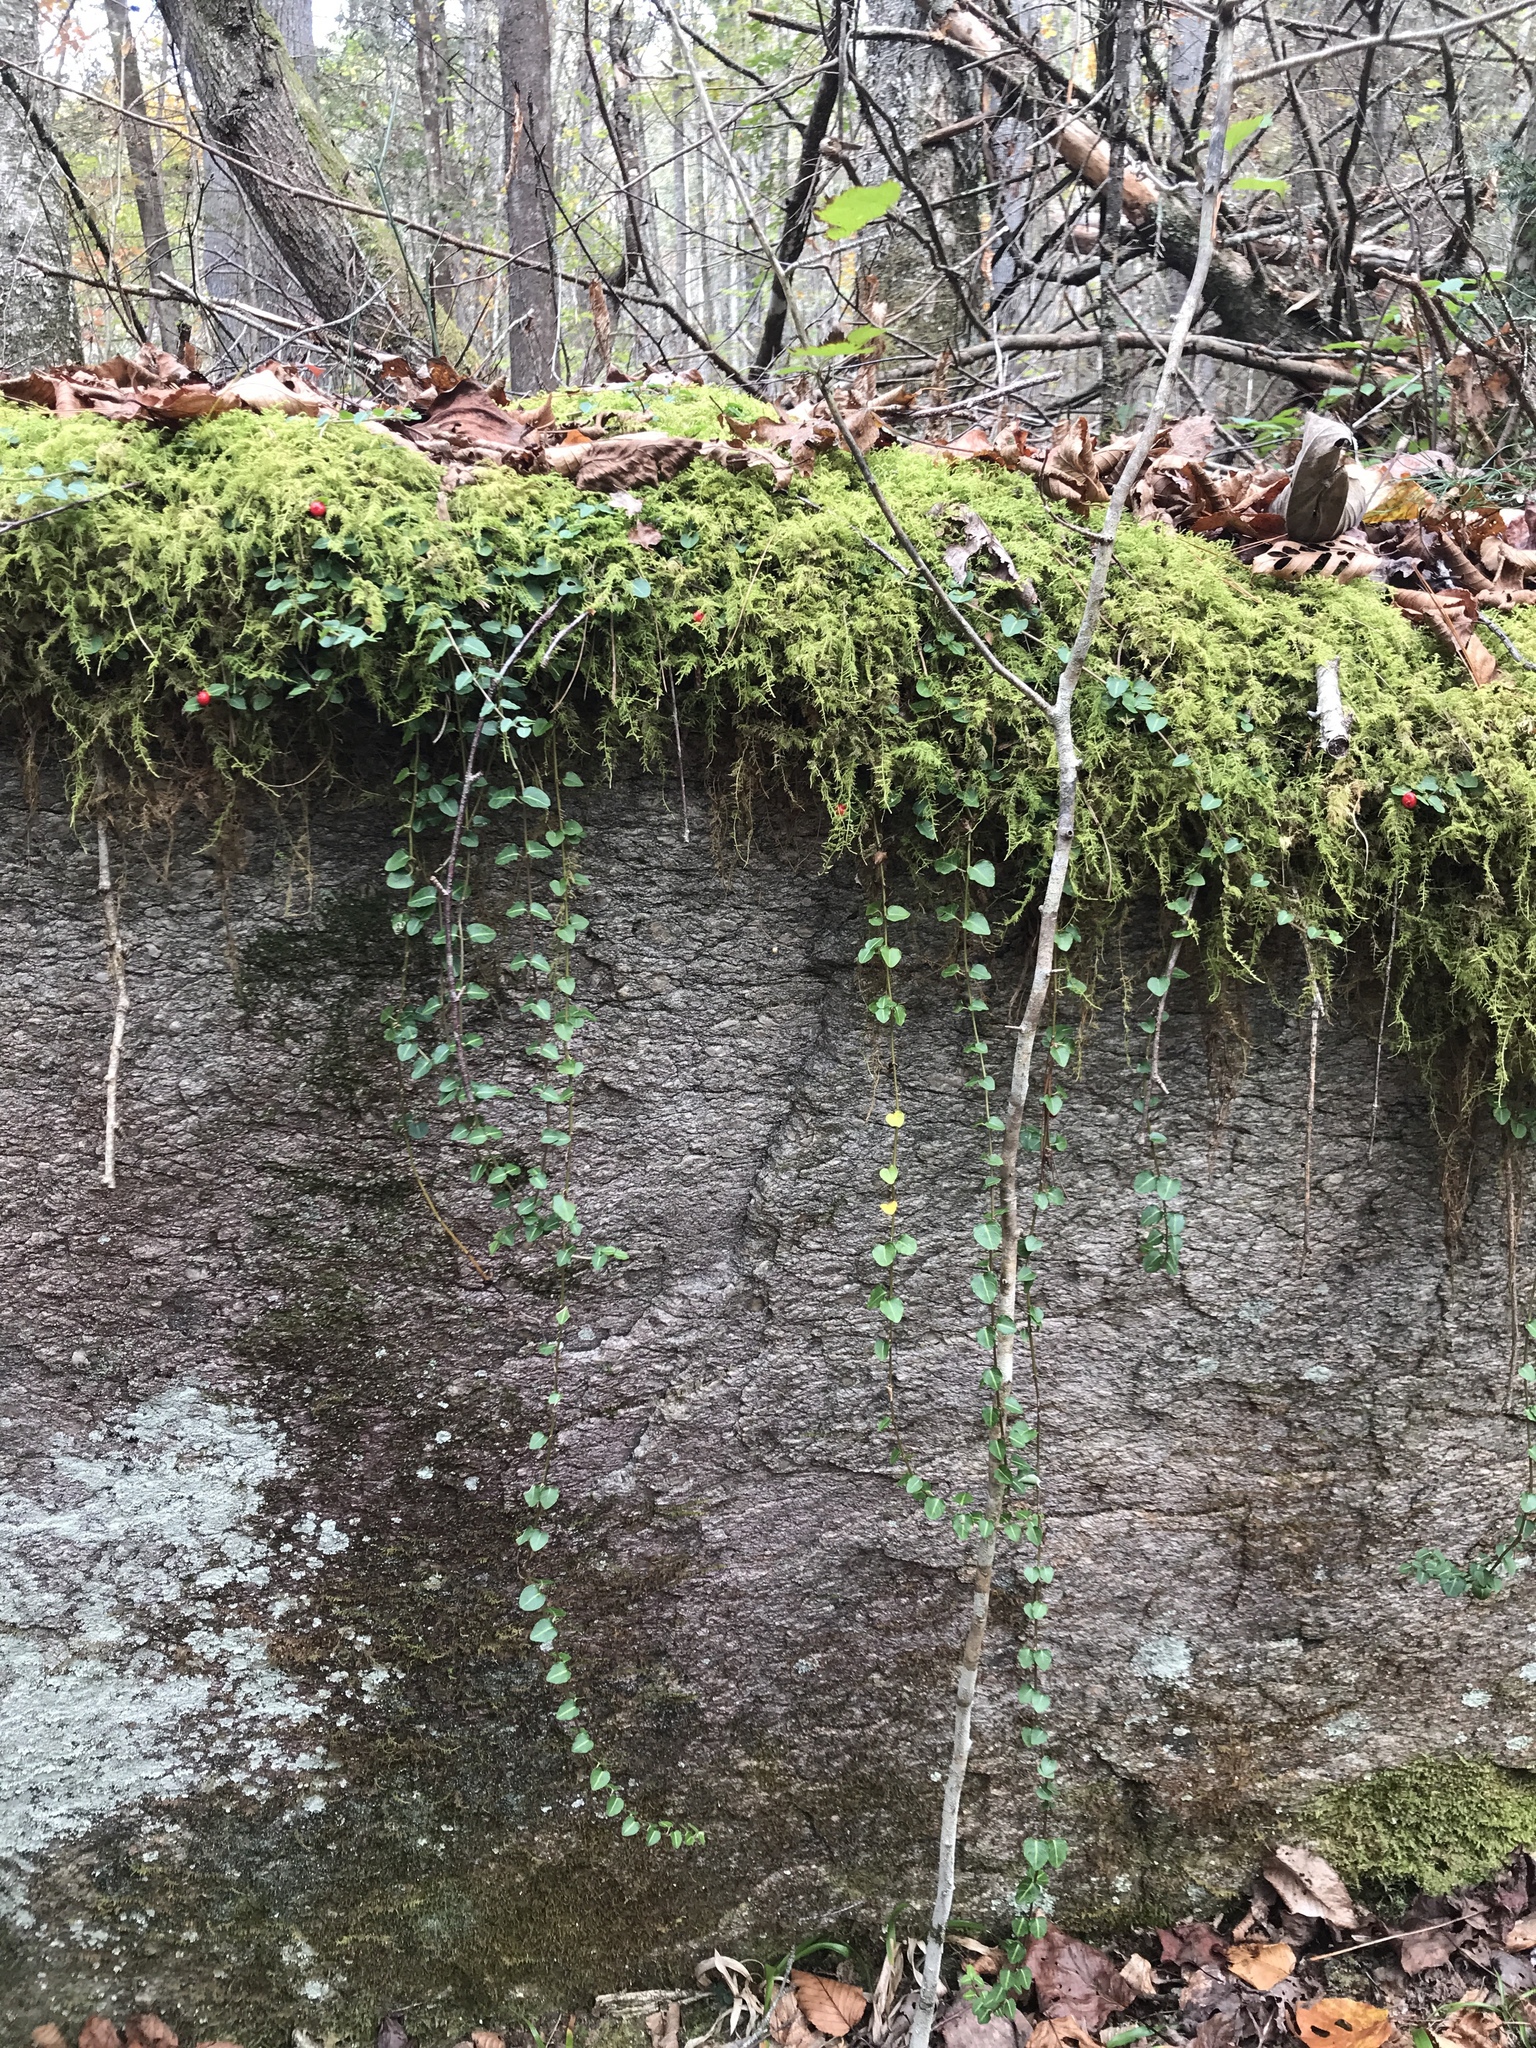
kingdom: Plantae
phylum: Tracheophyta
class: Magnoliopsida
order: Gentianales
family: Rubiaceae
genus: Mitchella
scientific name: Mitchella repens
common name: Partridge-berry
